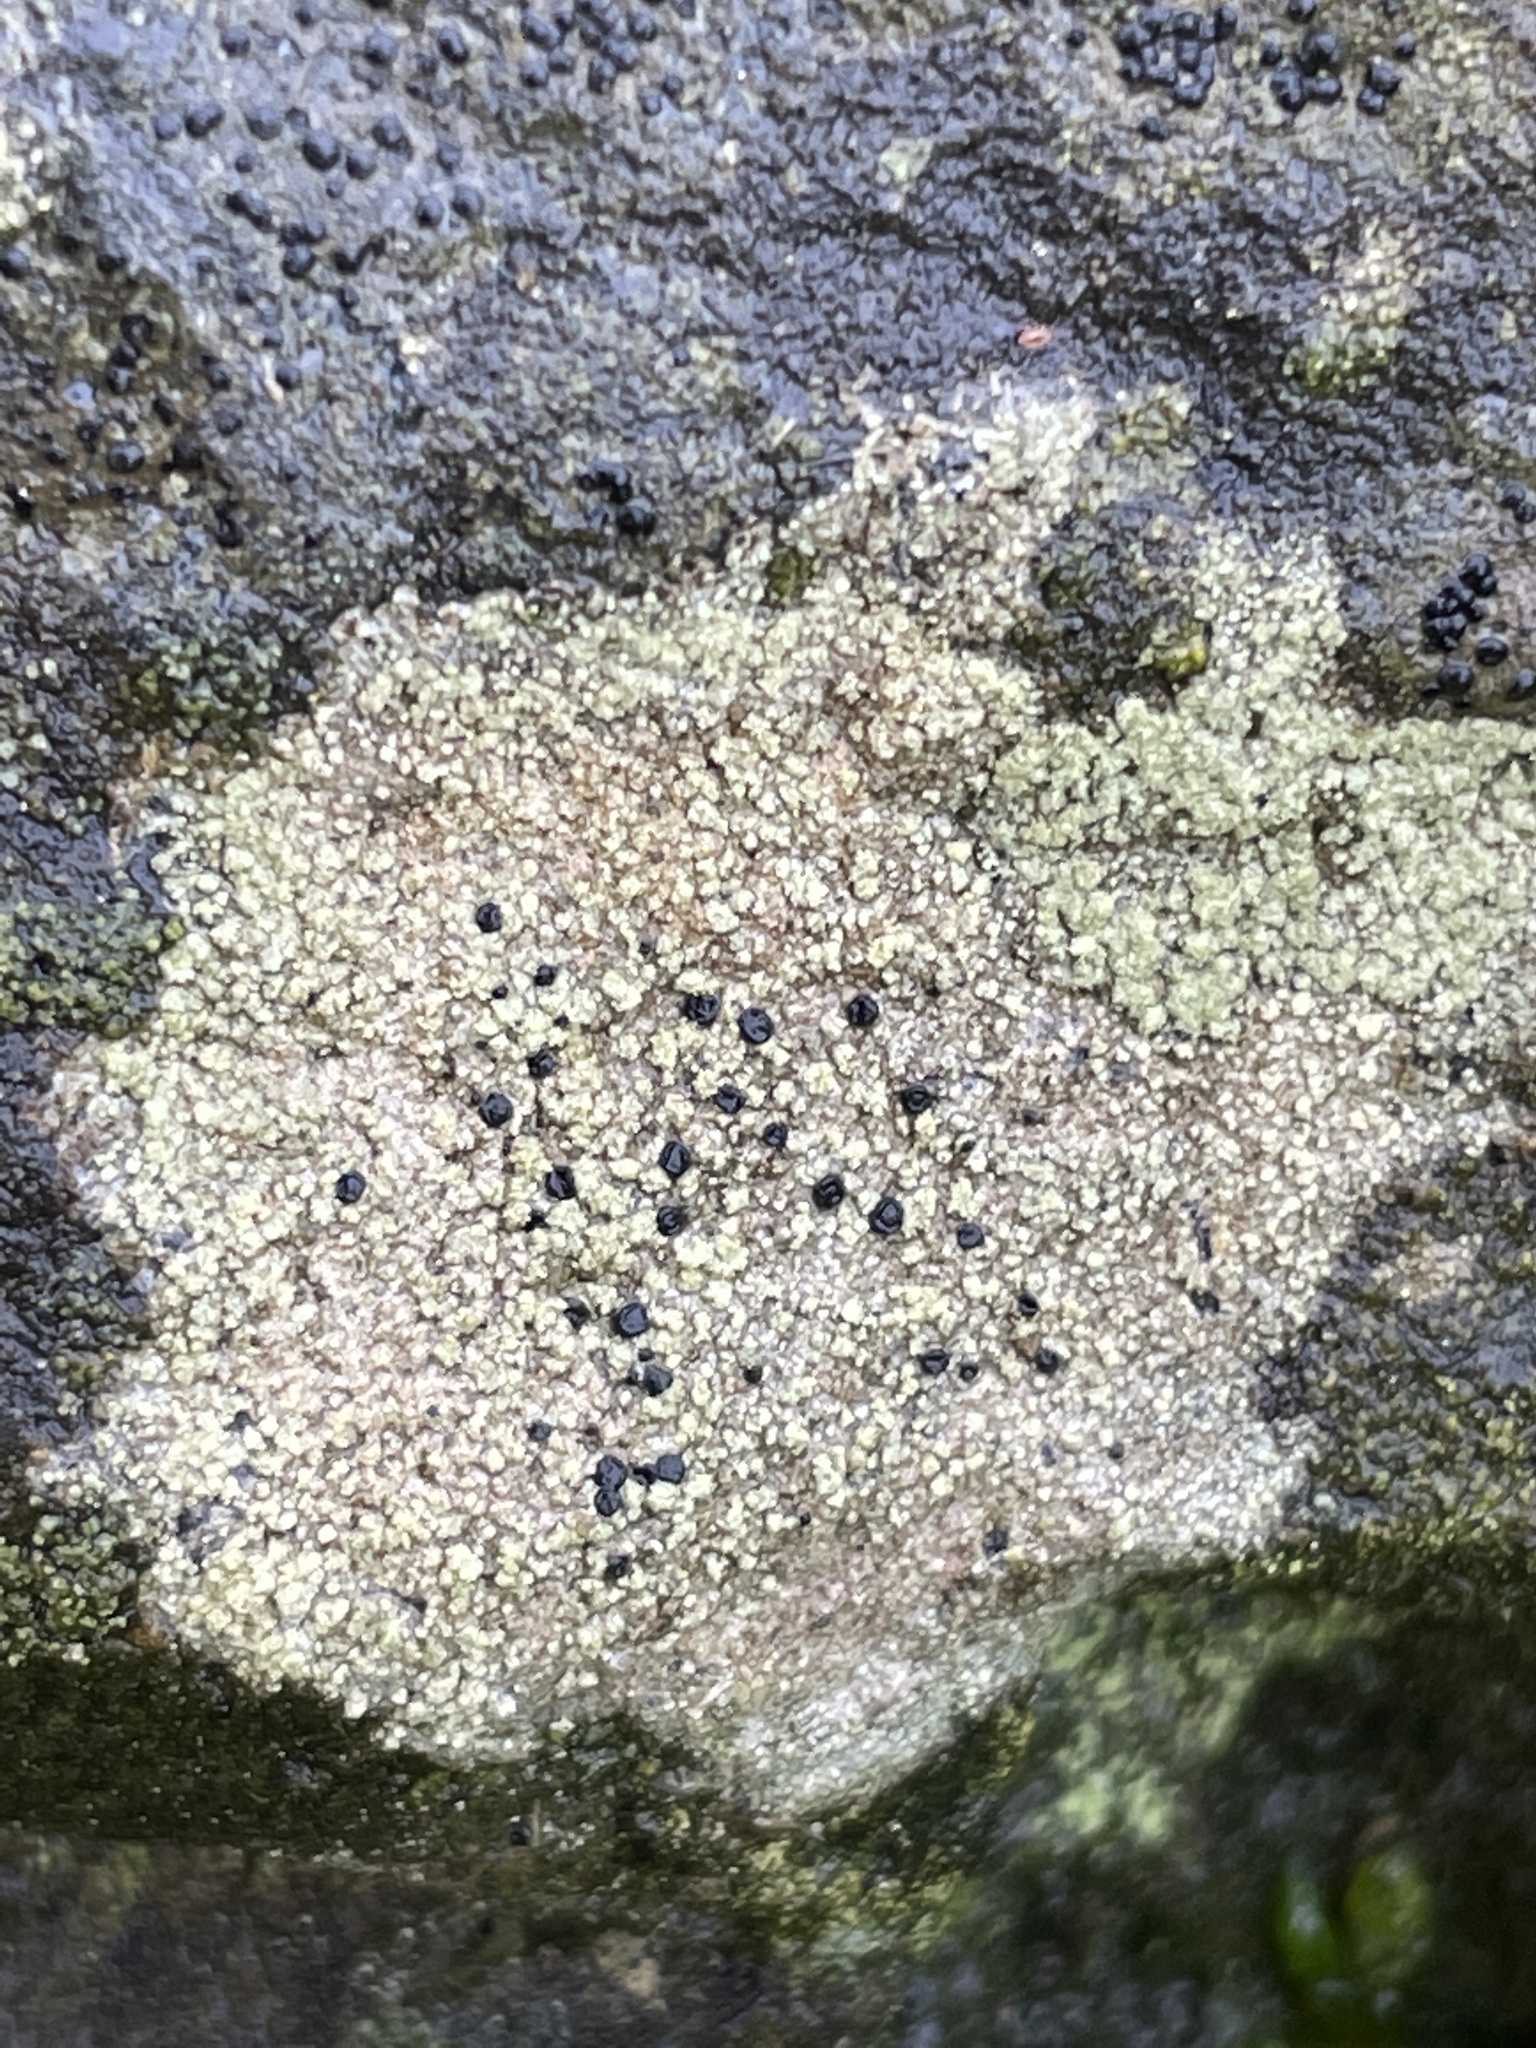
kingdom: Fungi
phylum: Ascomycota
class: Lecanoromycetes
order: Lecanorales
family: Lecanoraceae
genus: Lecidella
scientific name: Lecidella scabra
